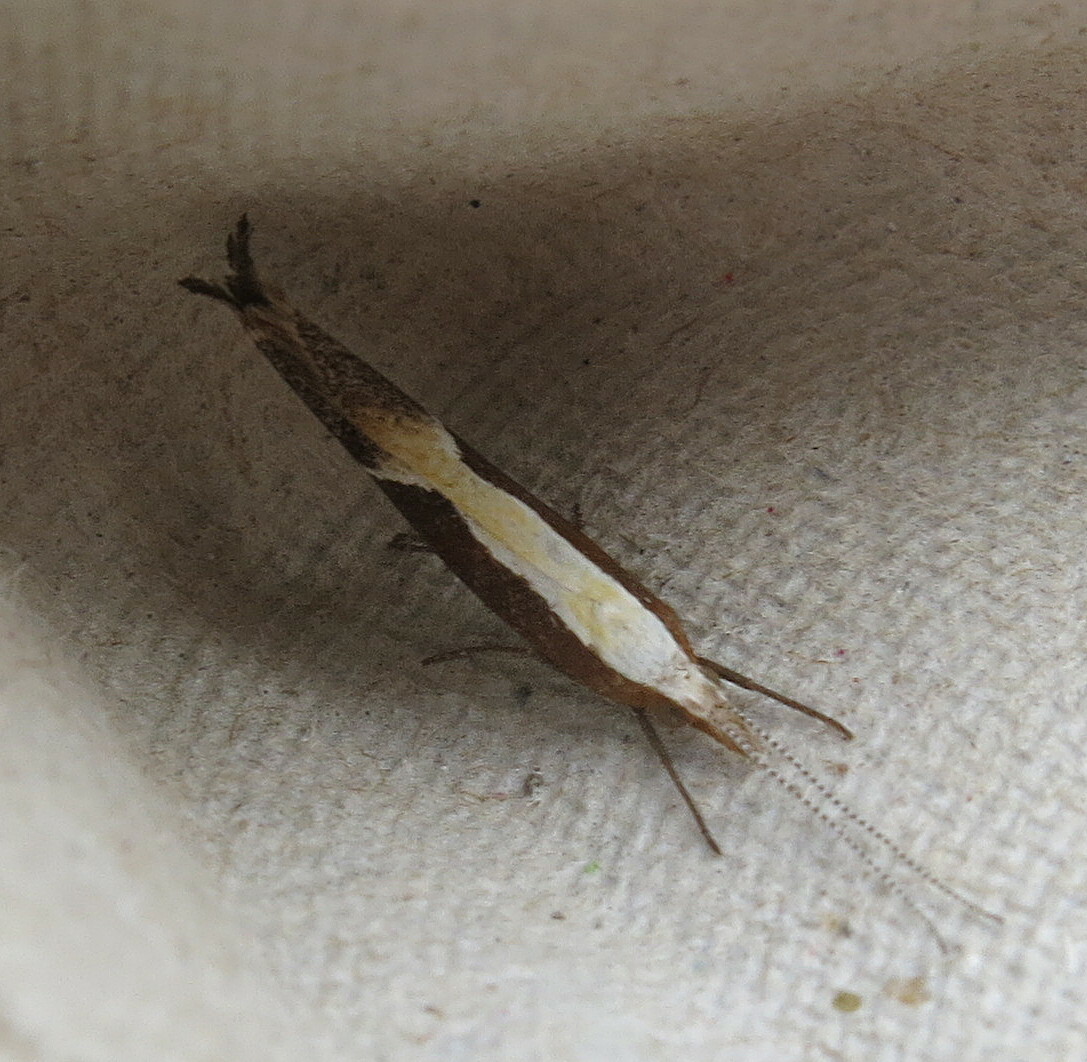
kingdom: Animalia
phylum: Arthropoda
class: Insecta
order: Lepidoptera
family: Ypsolophidae
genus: Ypsolopha
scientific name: Ypsolopha dentella
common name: Honeysuckle moth
